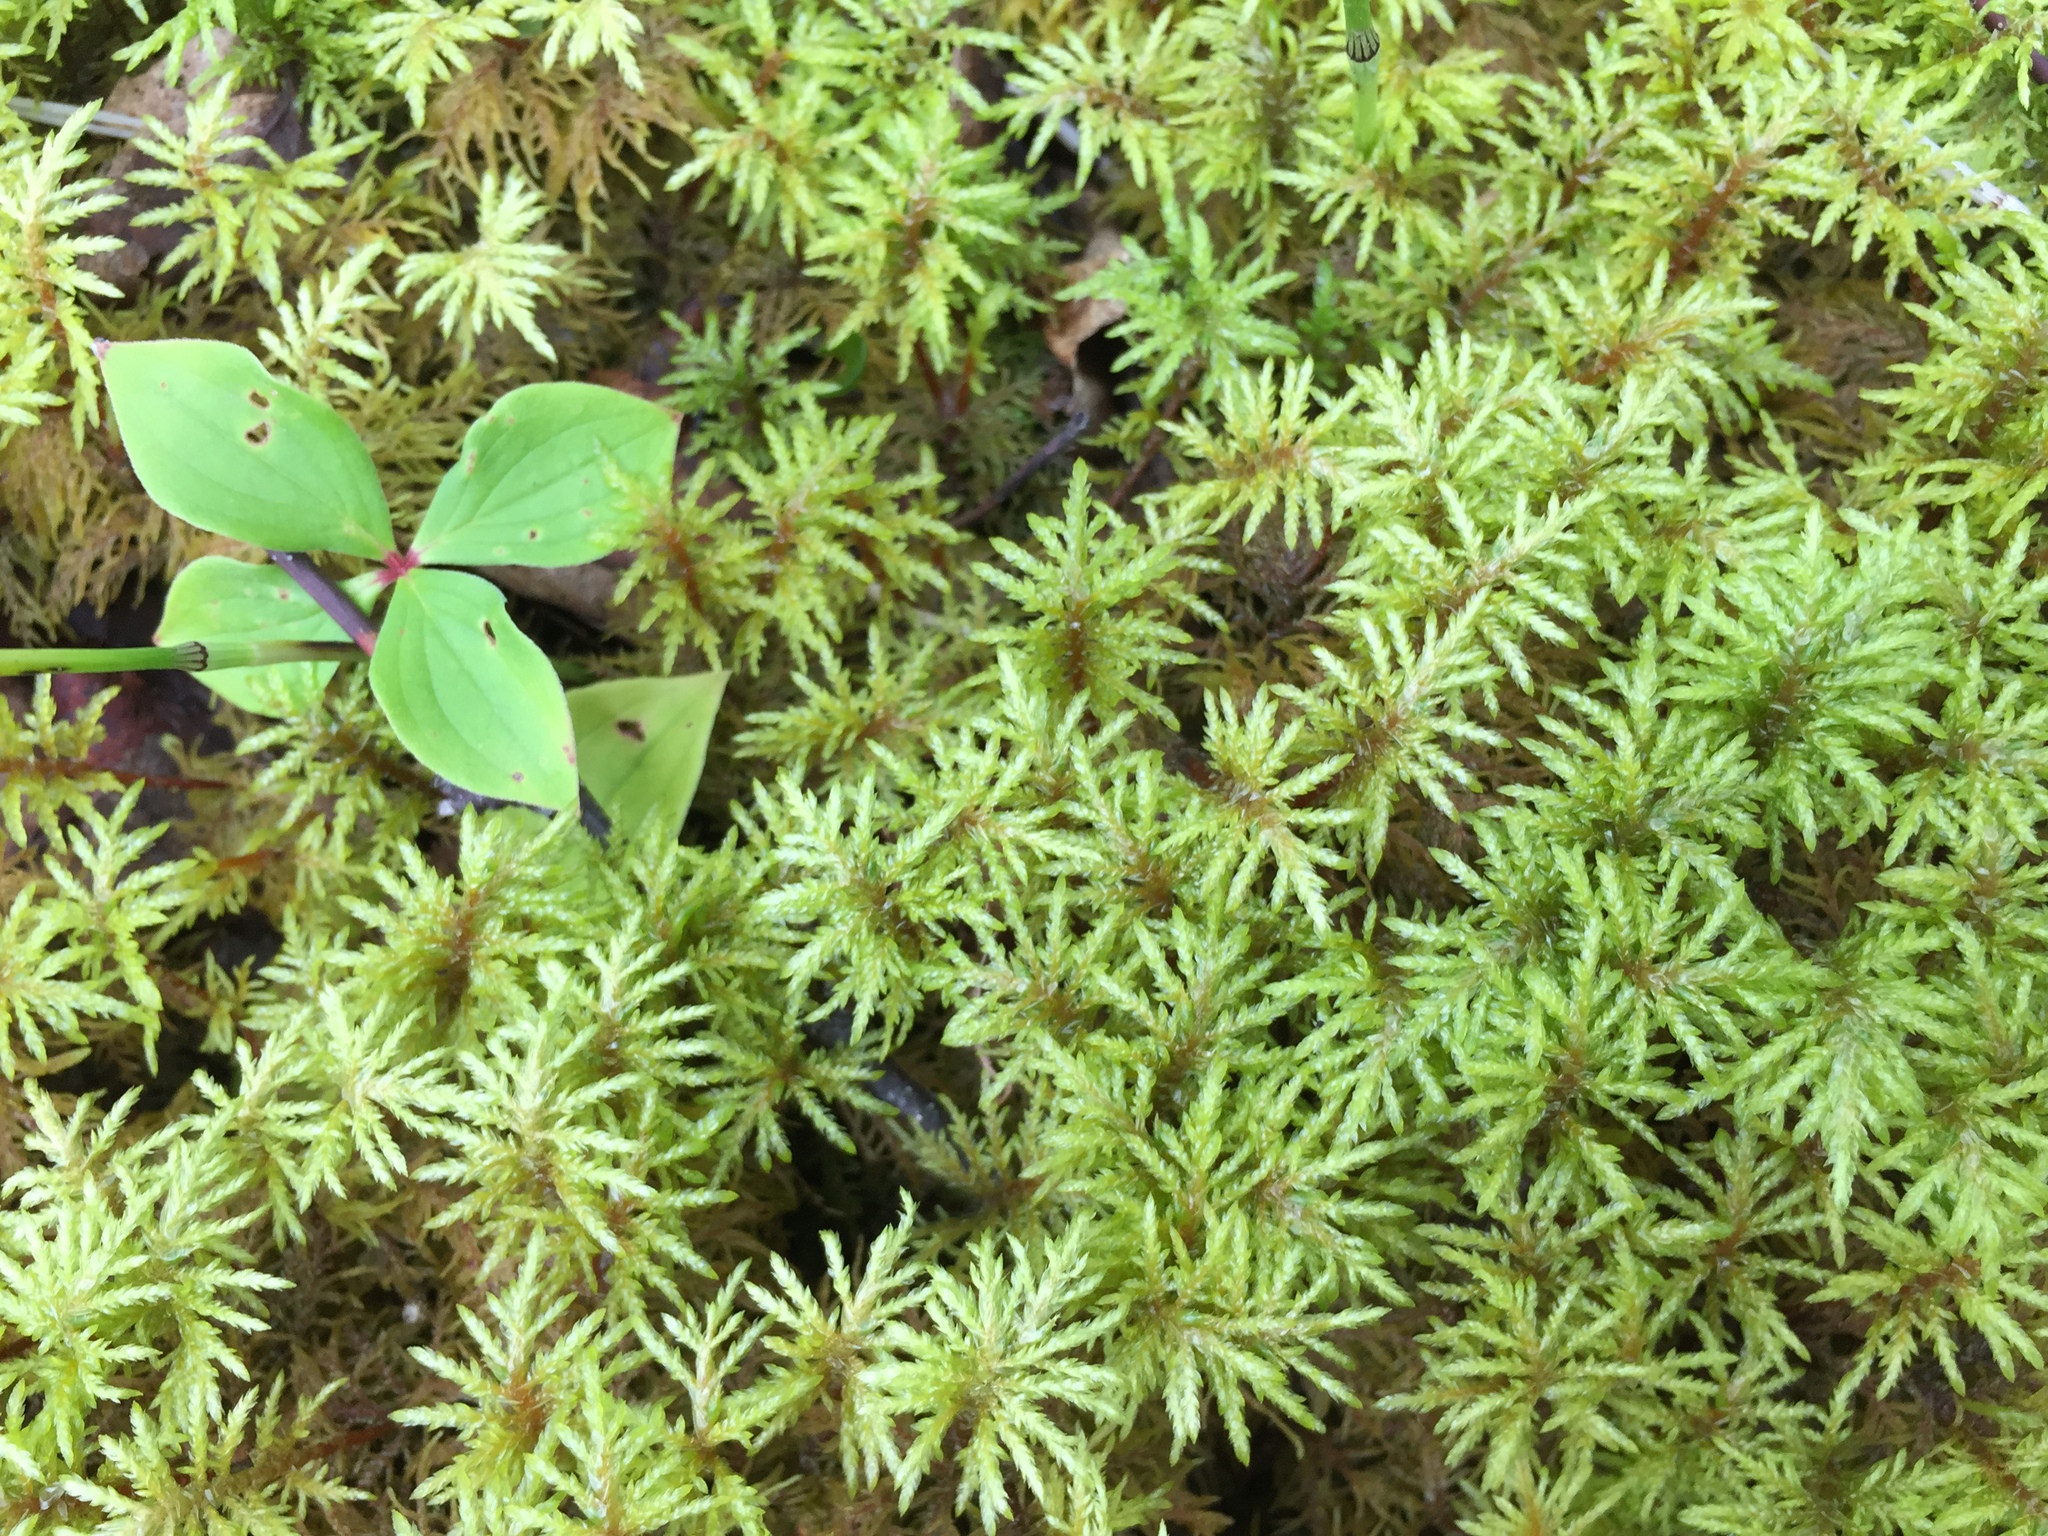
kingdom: Plantae
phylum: Bryophyta
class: Bryopsida
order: Hypnales
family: Hylocomiaceae
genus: Hylocomium
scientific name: Hylocomium splendens
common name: Stairstep moss
